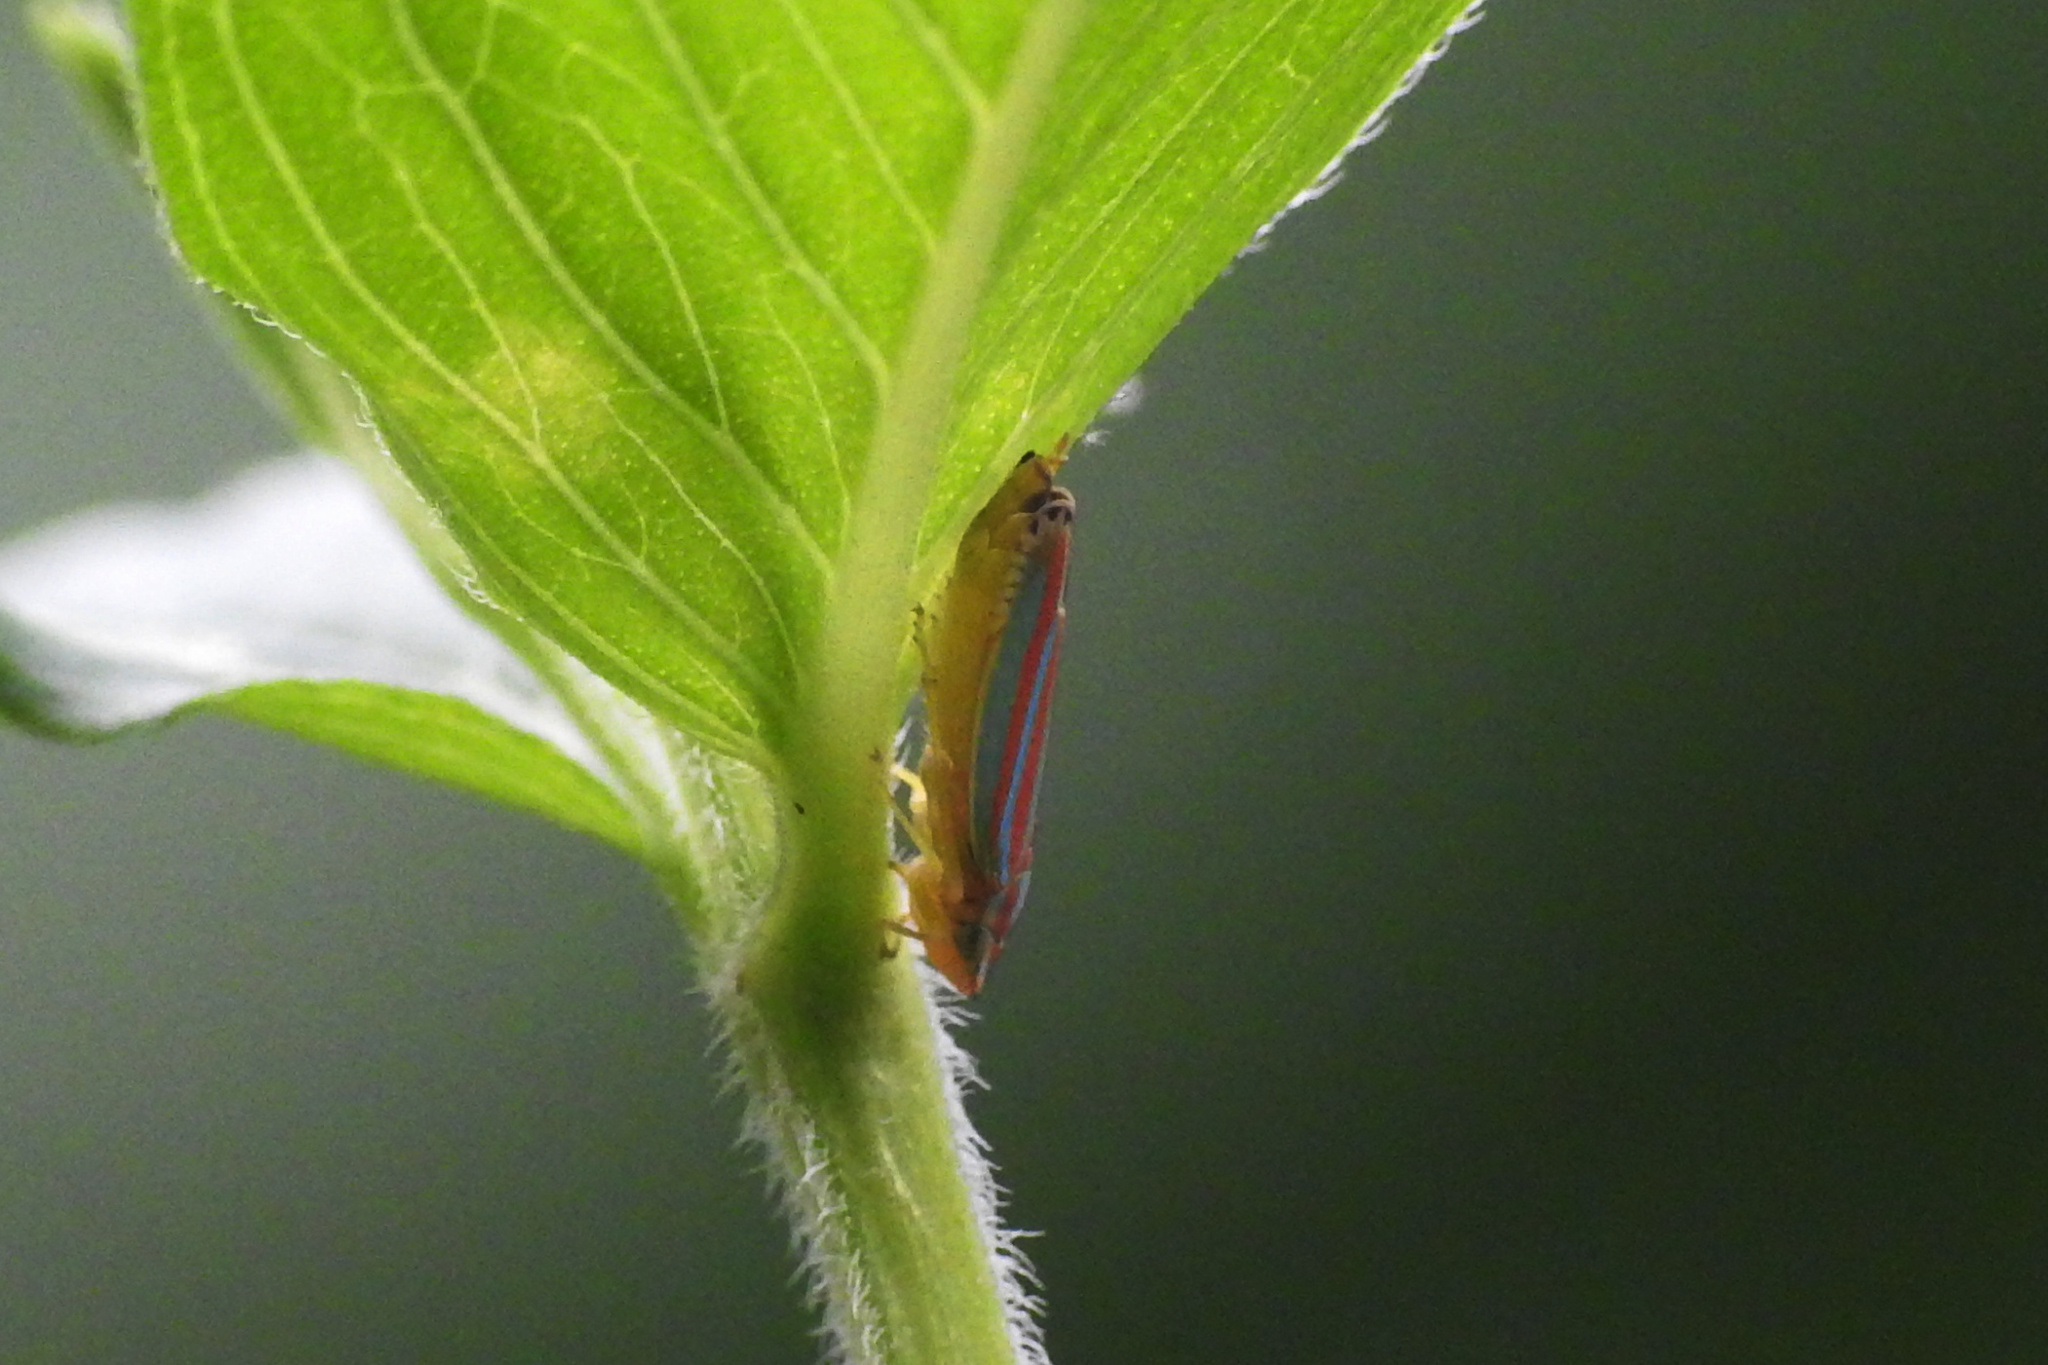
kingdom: Animalia
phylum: Arthropoda
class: Insecta
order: Hemiptera
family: Cicadellidae
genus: Graphocephala
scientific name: Graphocephala versuta
